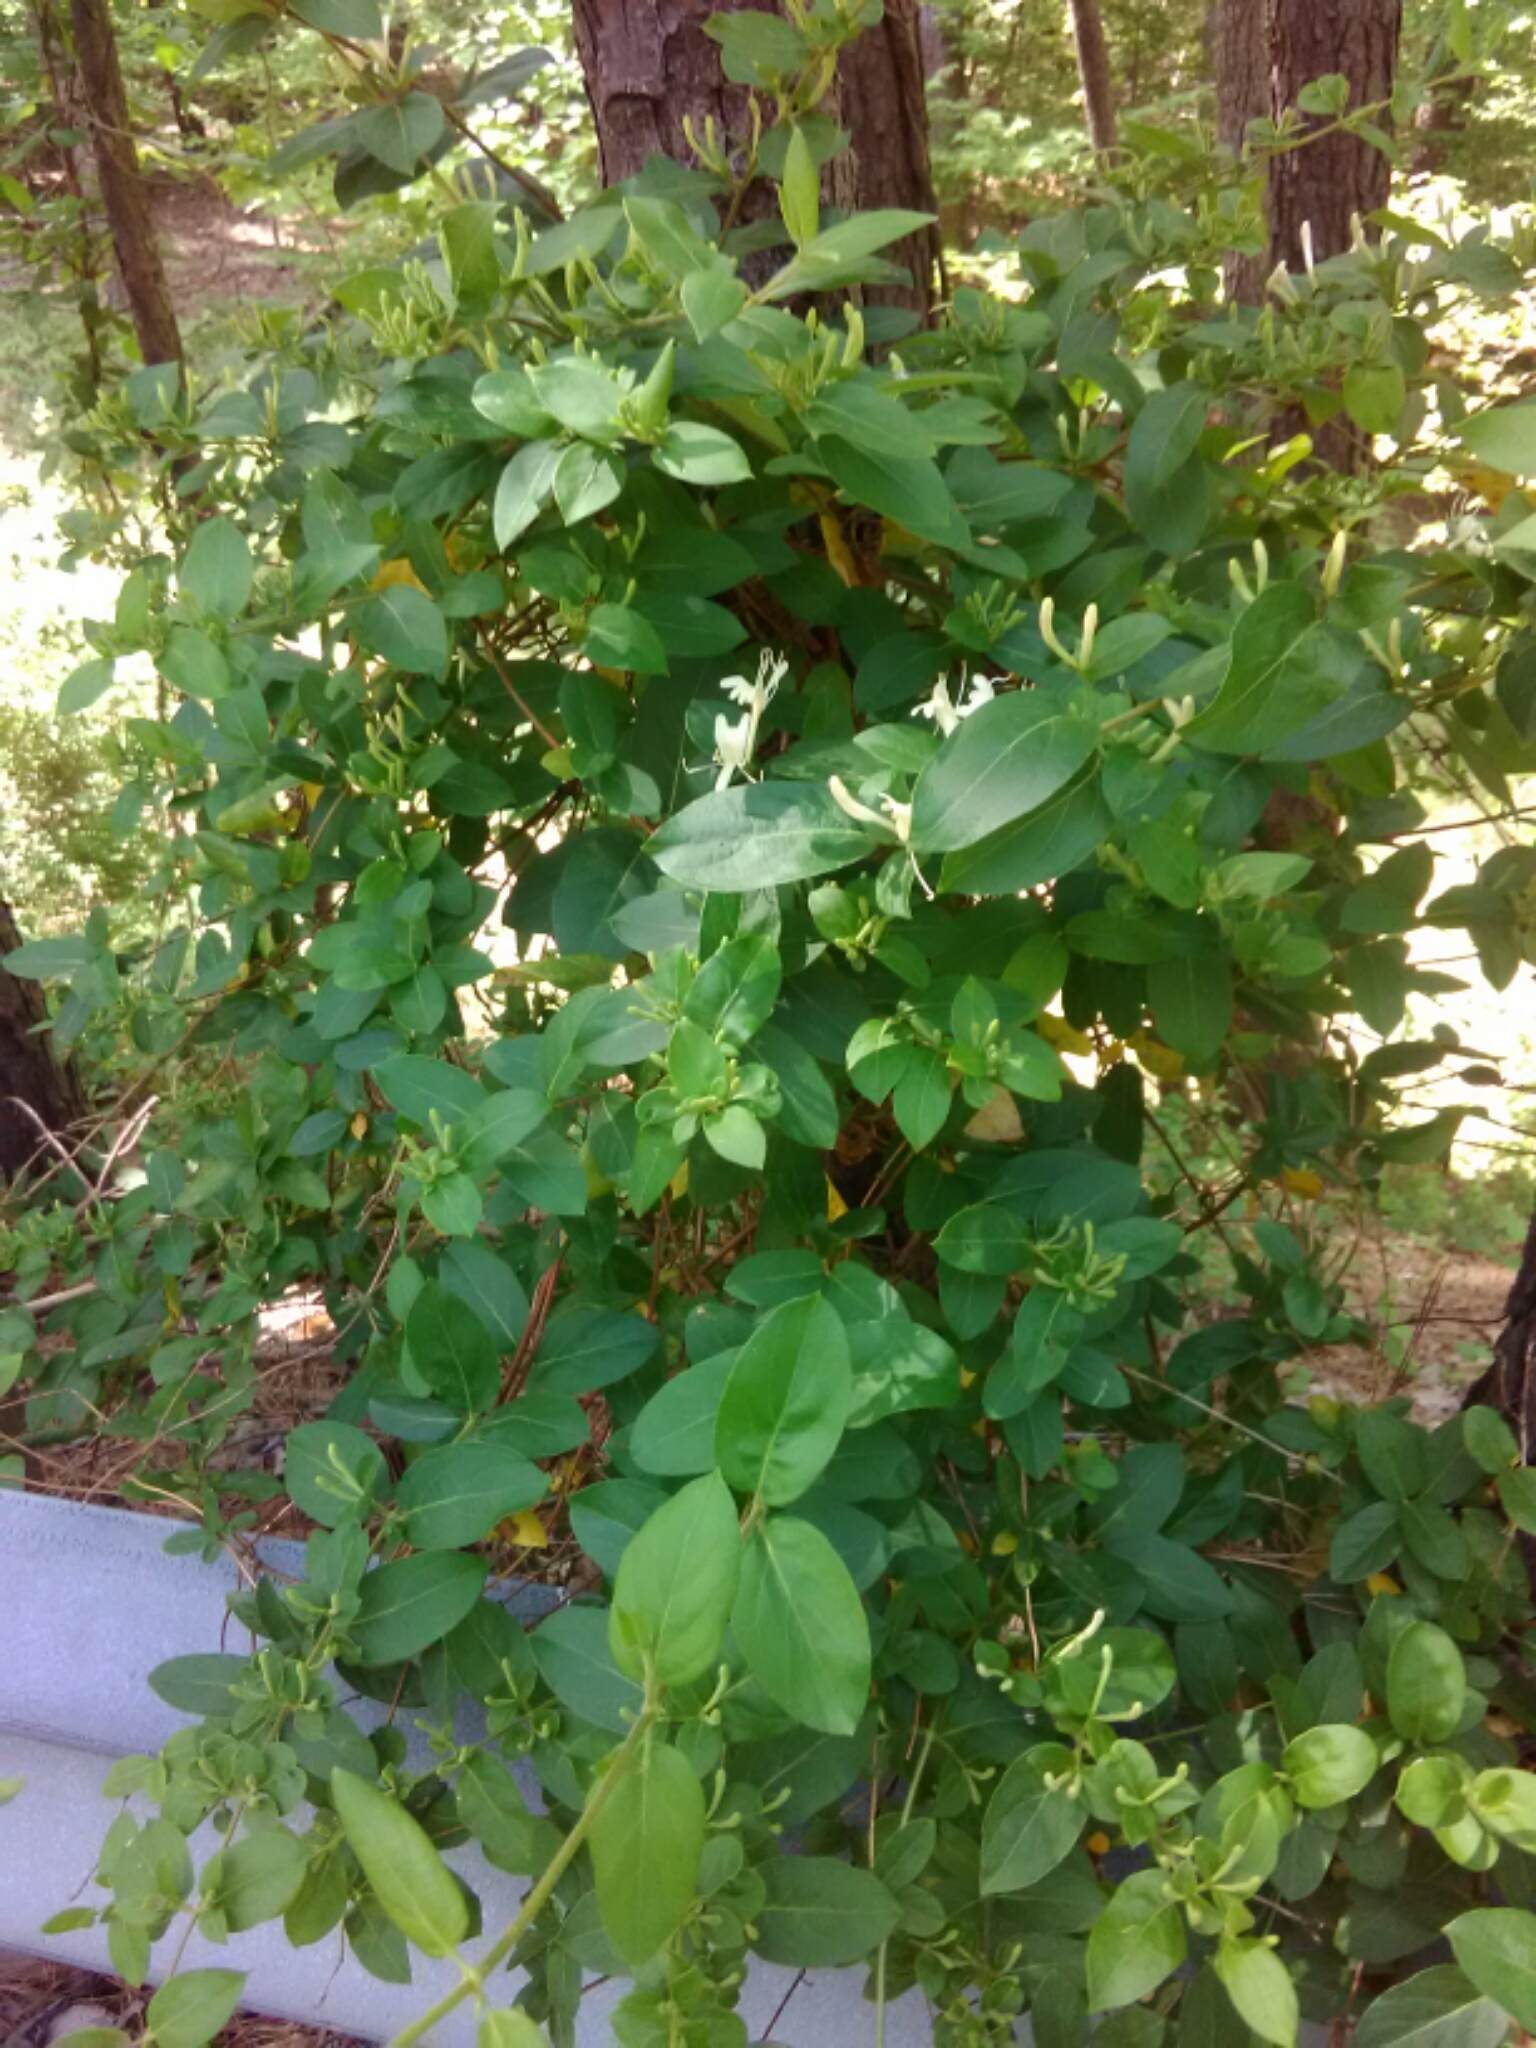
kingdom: Plantae
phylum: Tracheophyta
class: Magnoliopsida
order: Dipsacales
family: Caprifoliaceae
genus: Lonicera
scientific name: Lonicera japonica
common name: Japanese honeysuckle
